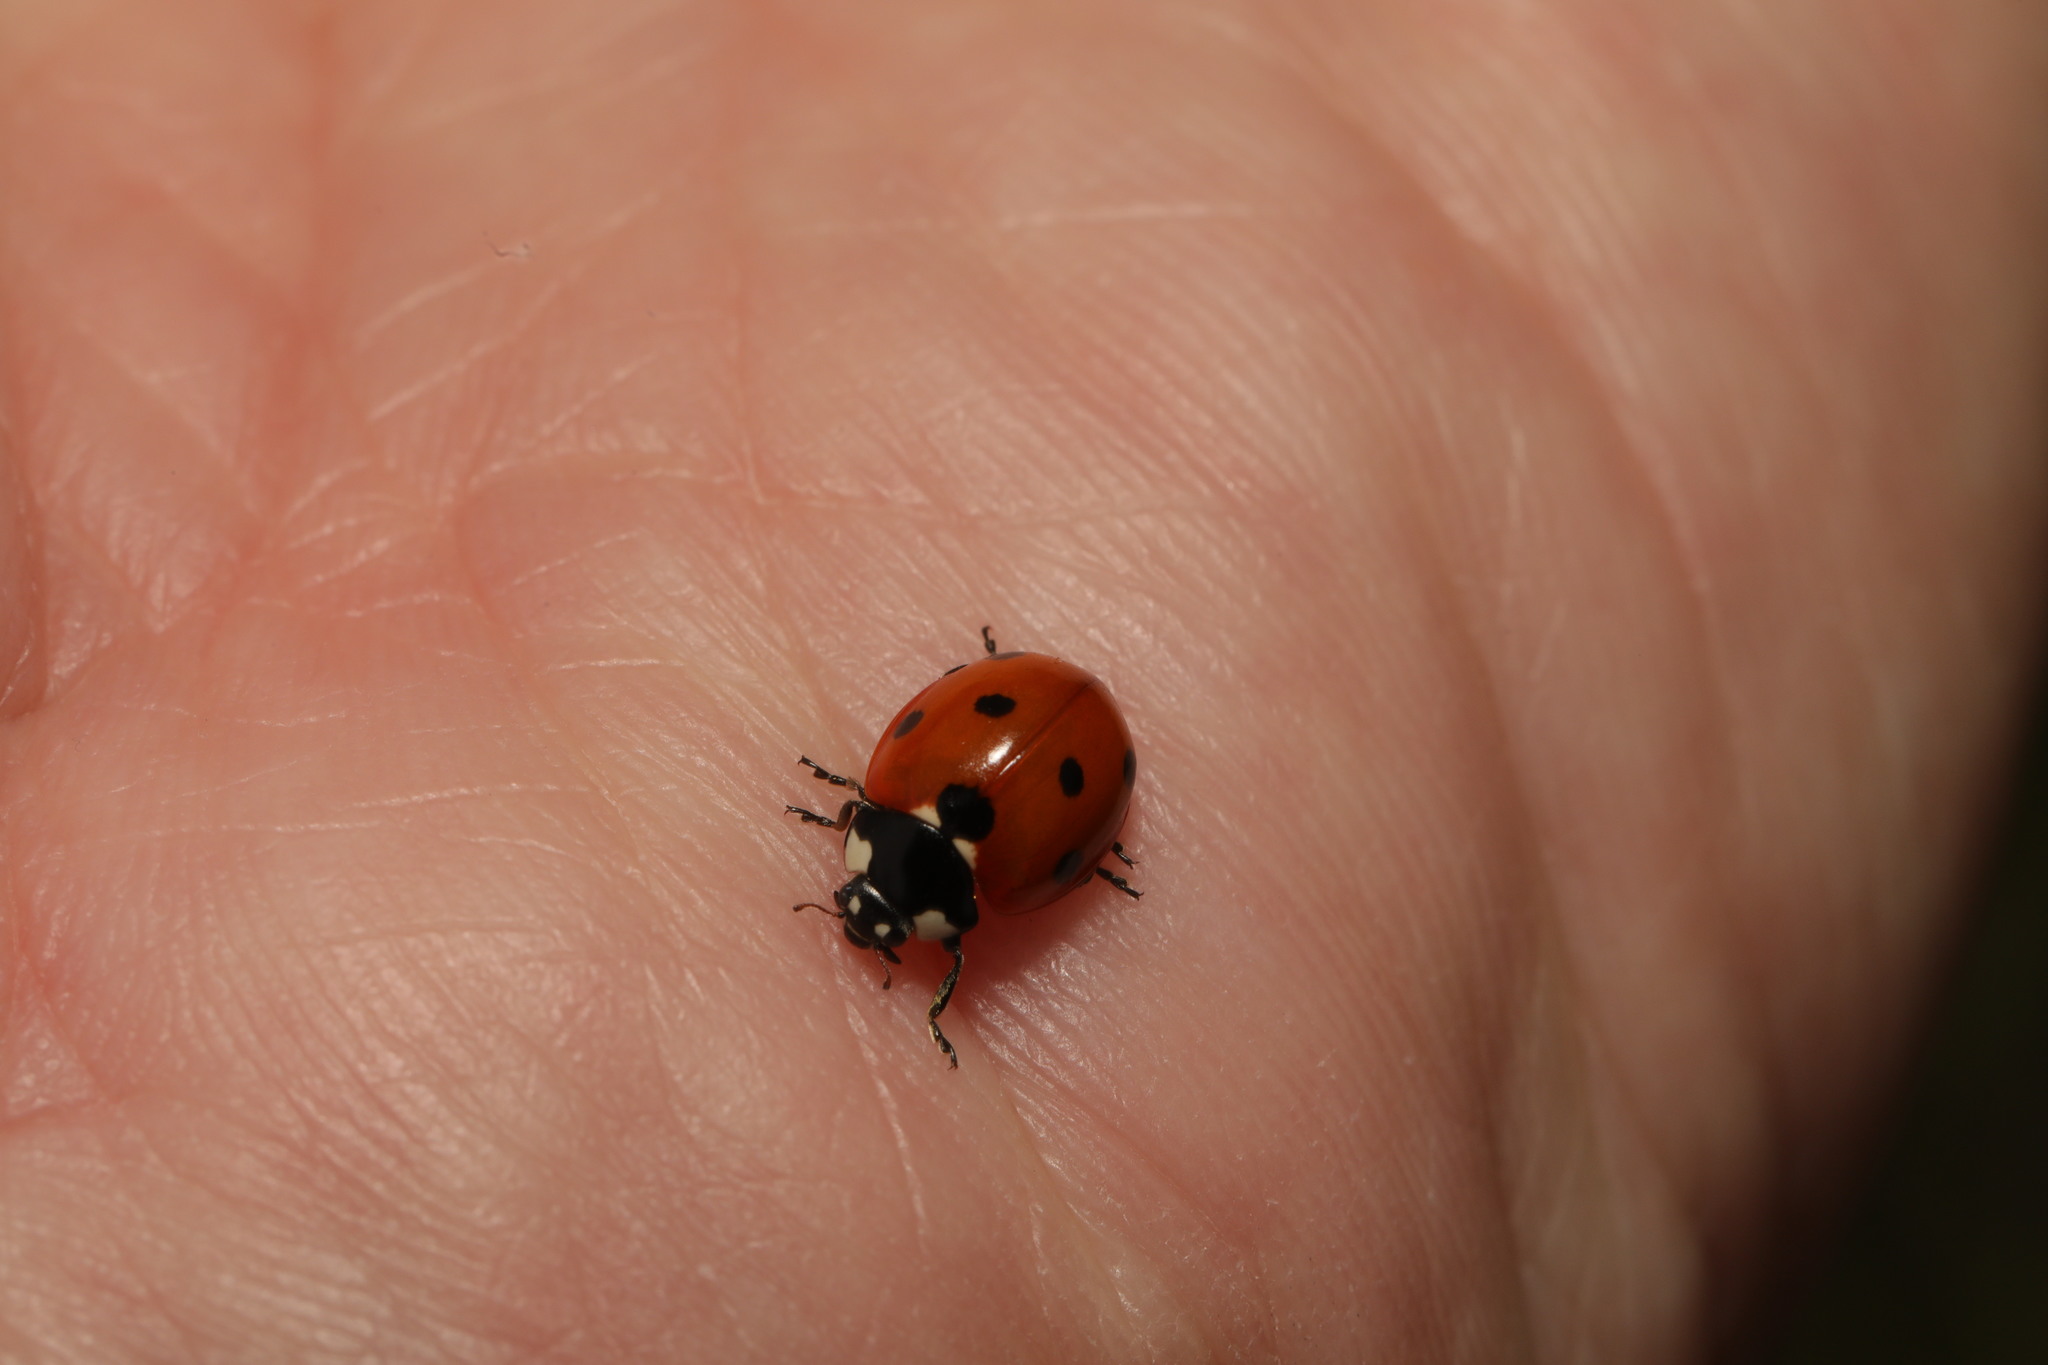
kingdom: Animalia
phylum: Arthropoda
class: Insecta
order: Coleoptera
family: Coccinellidae
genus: Coccinella
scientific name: Coccinella septempunctata
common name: Sevenspotted lady beetle
